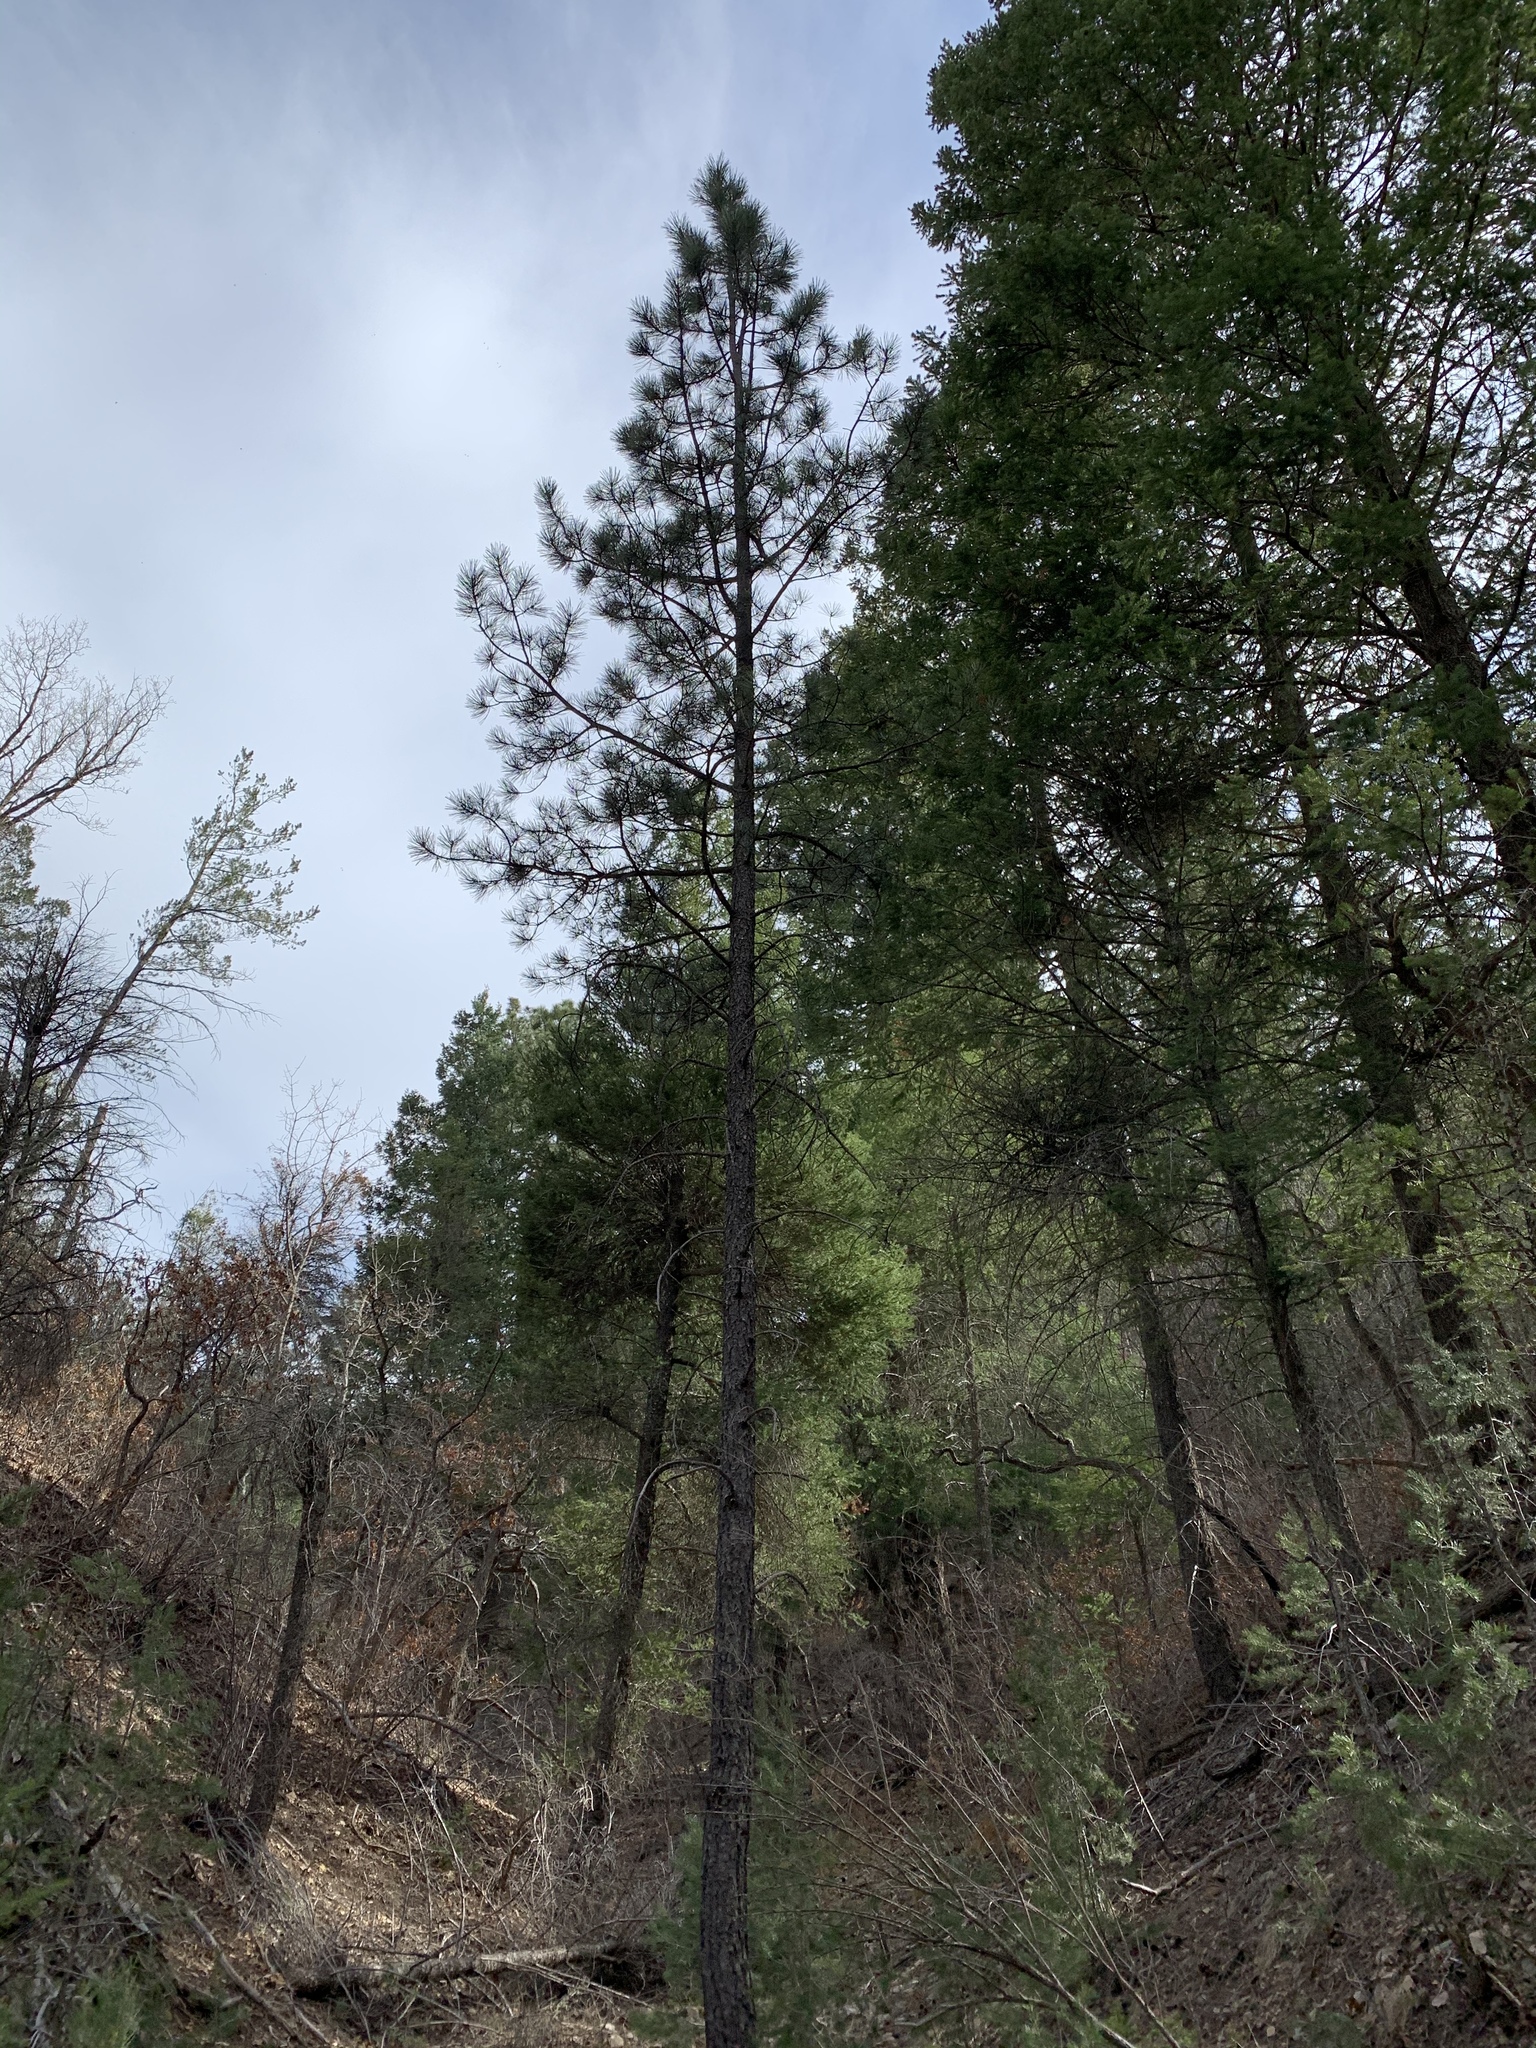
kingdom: Plantae
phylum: Tracheophyta
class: Pinopsida
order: Pinales
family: Pinaceae
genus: Pinus
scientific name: Pinus ponderosa
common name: Western yellow-pine
